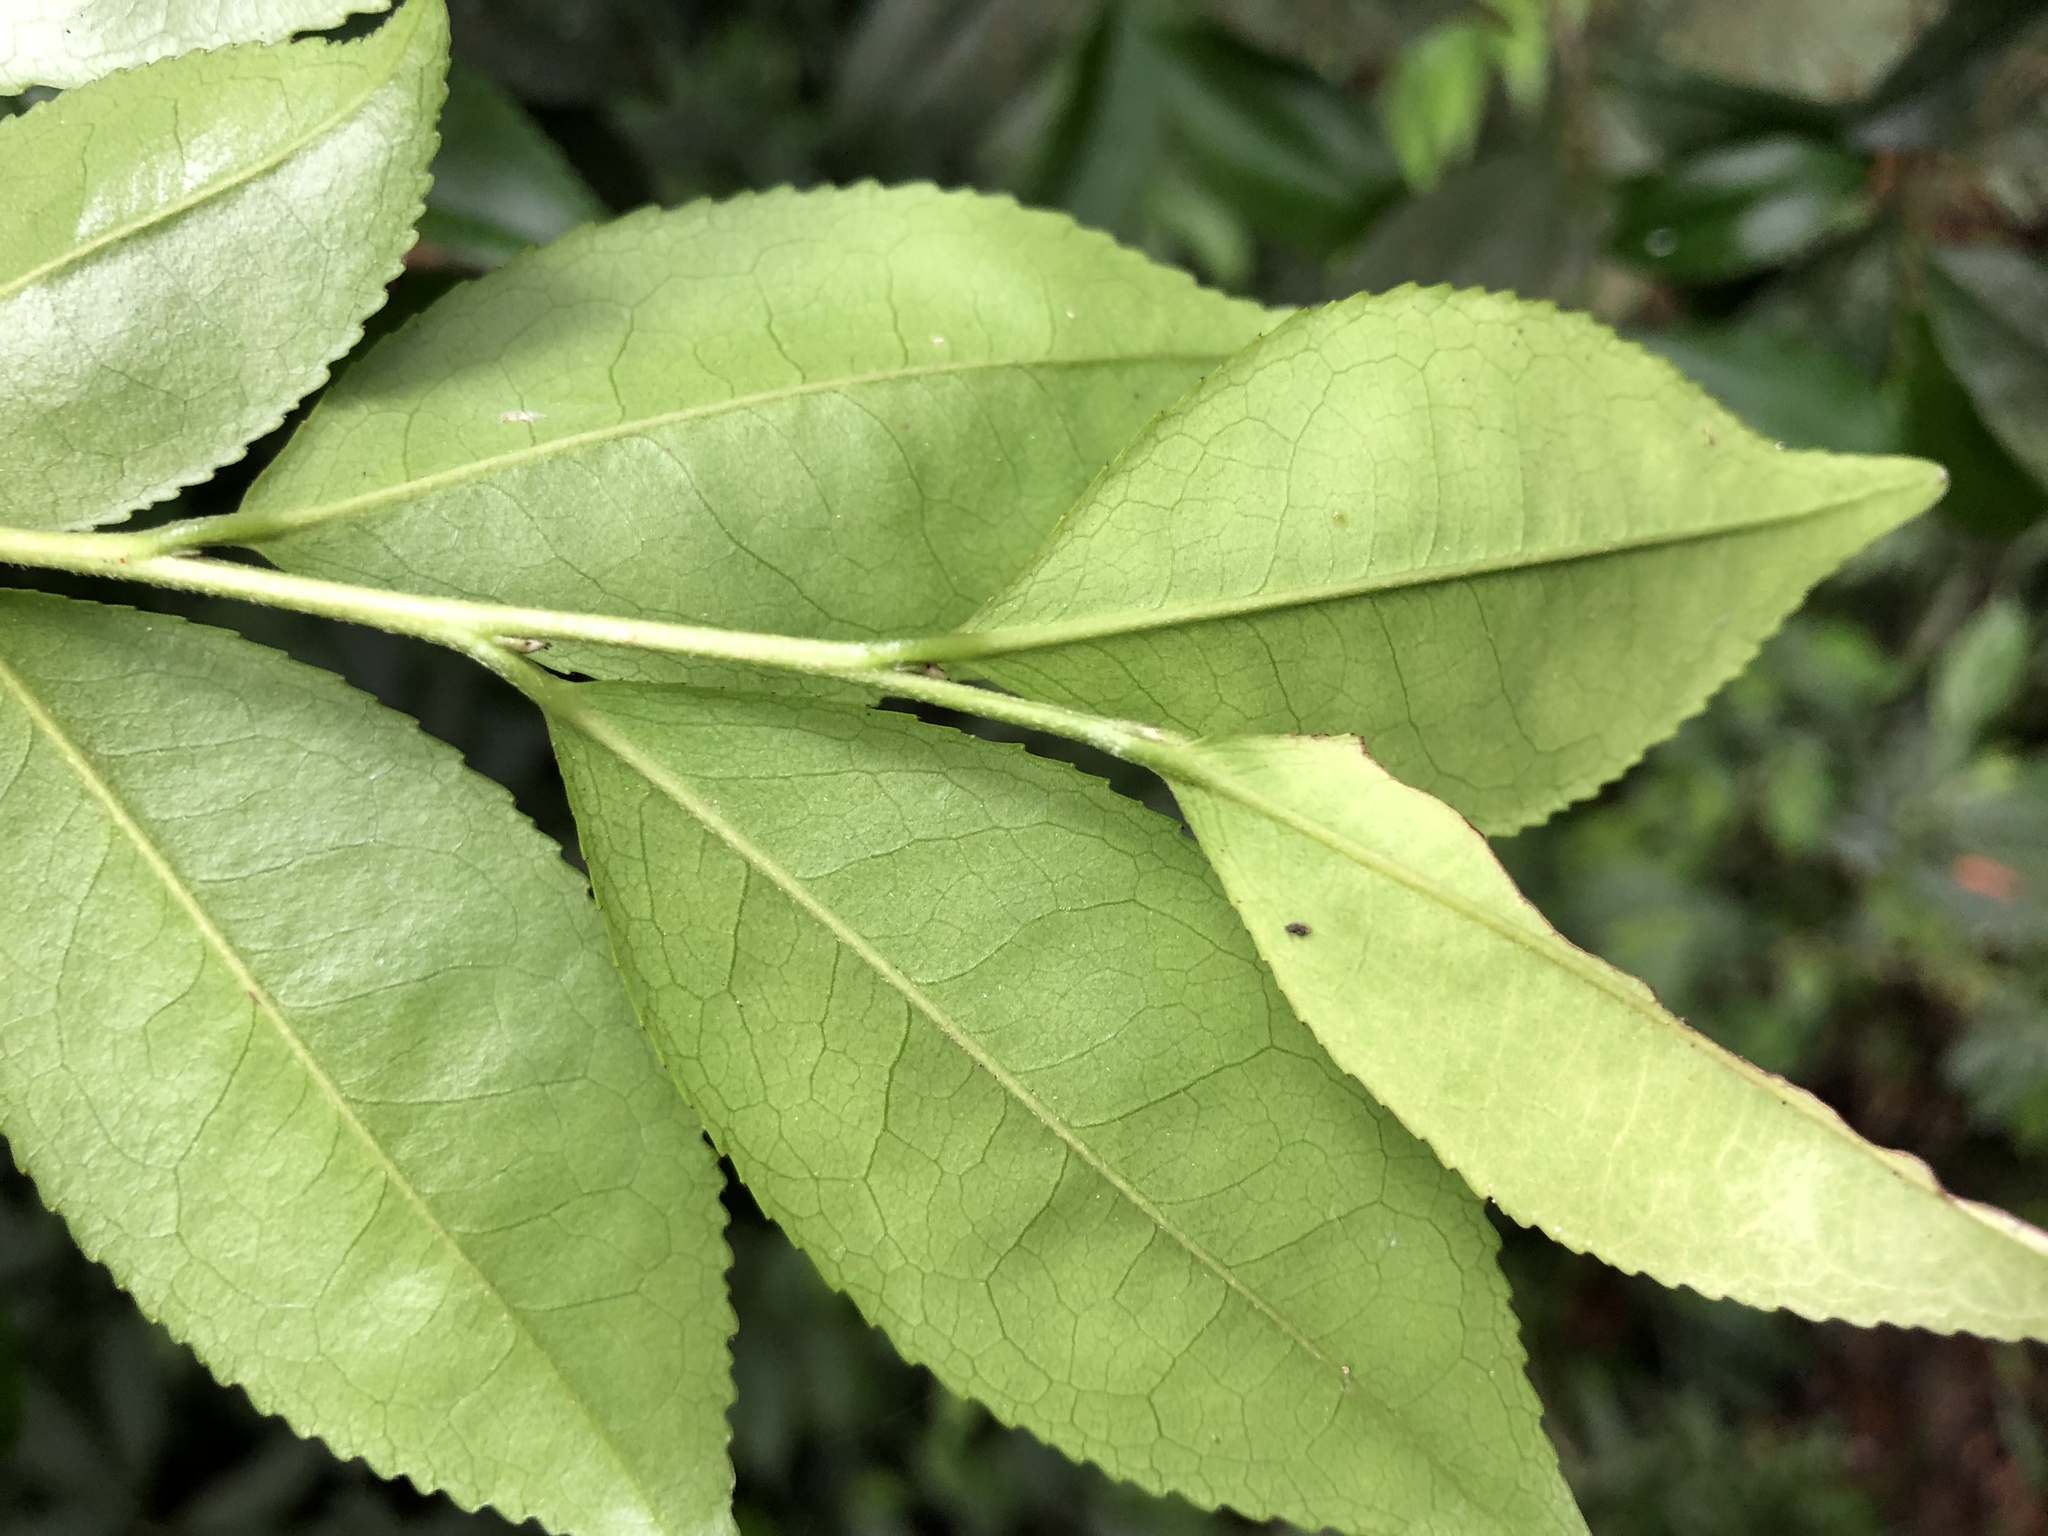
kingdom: Plantae
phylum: Tracheophyta
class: Magnoliopsida
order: Ericales
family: Pentaphylacaceae
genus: Eurya
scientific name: Eurya septata
